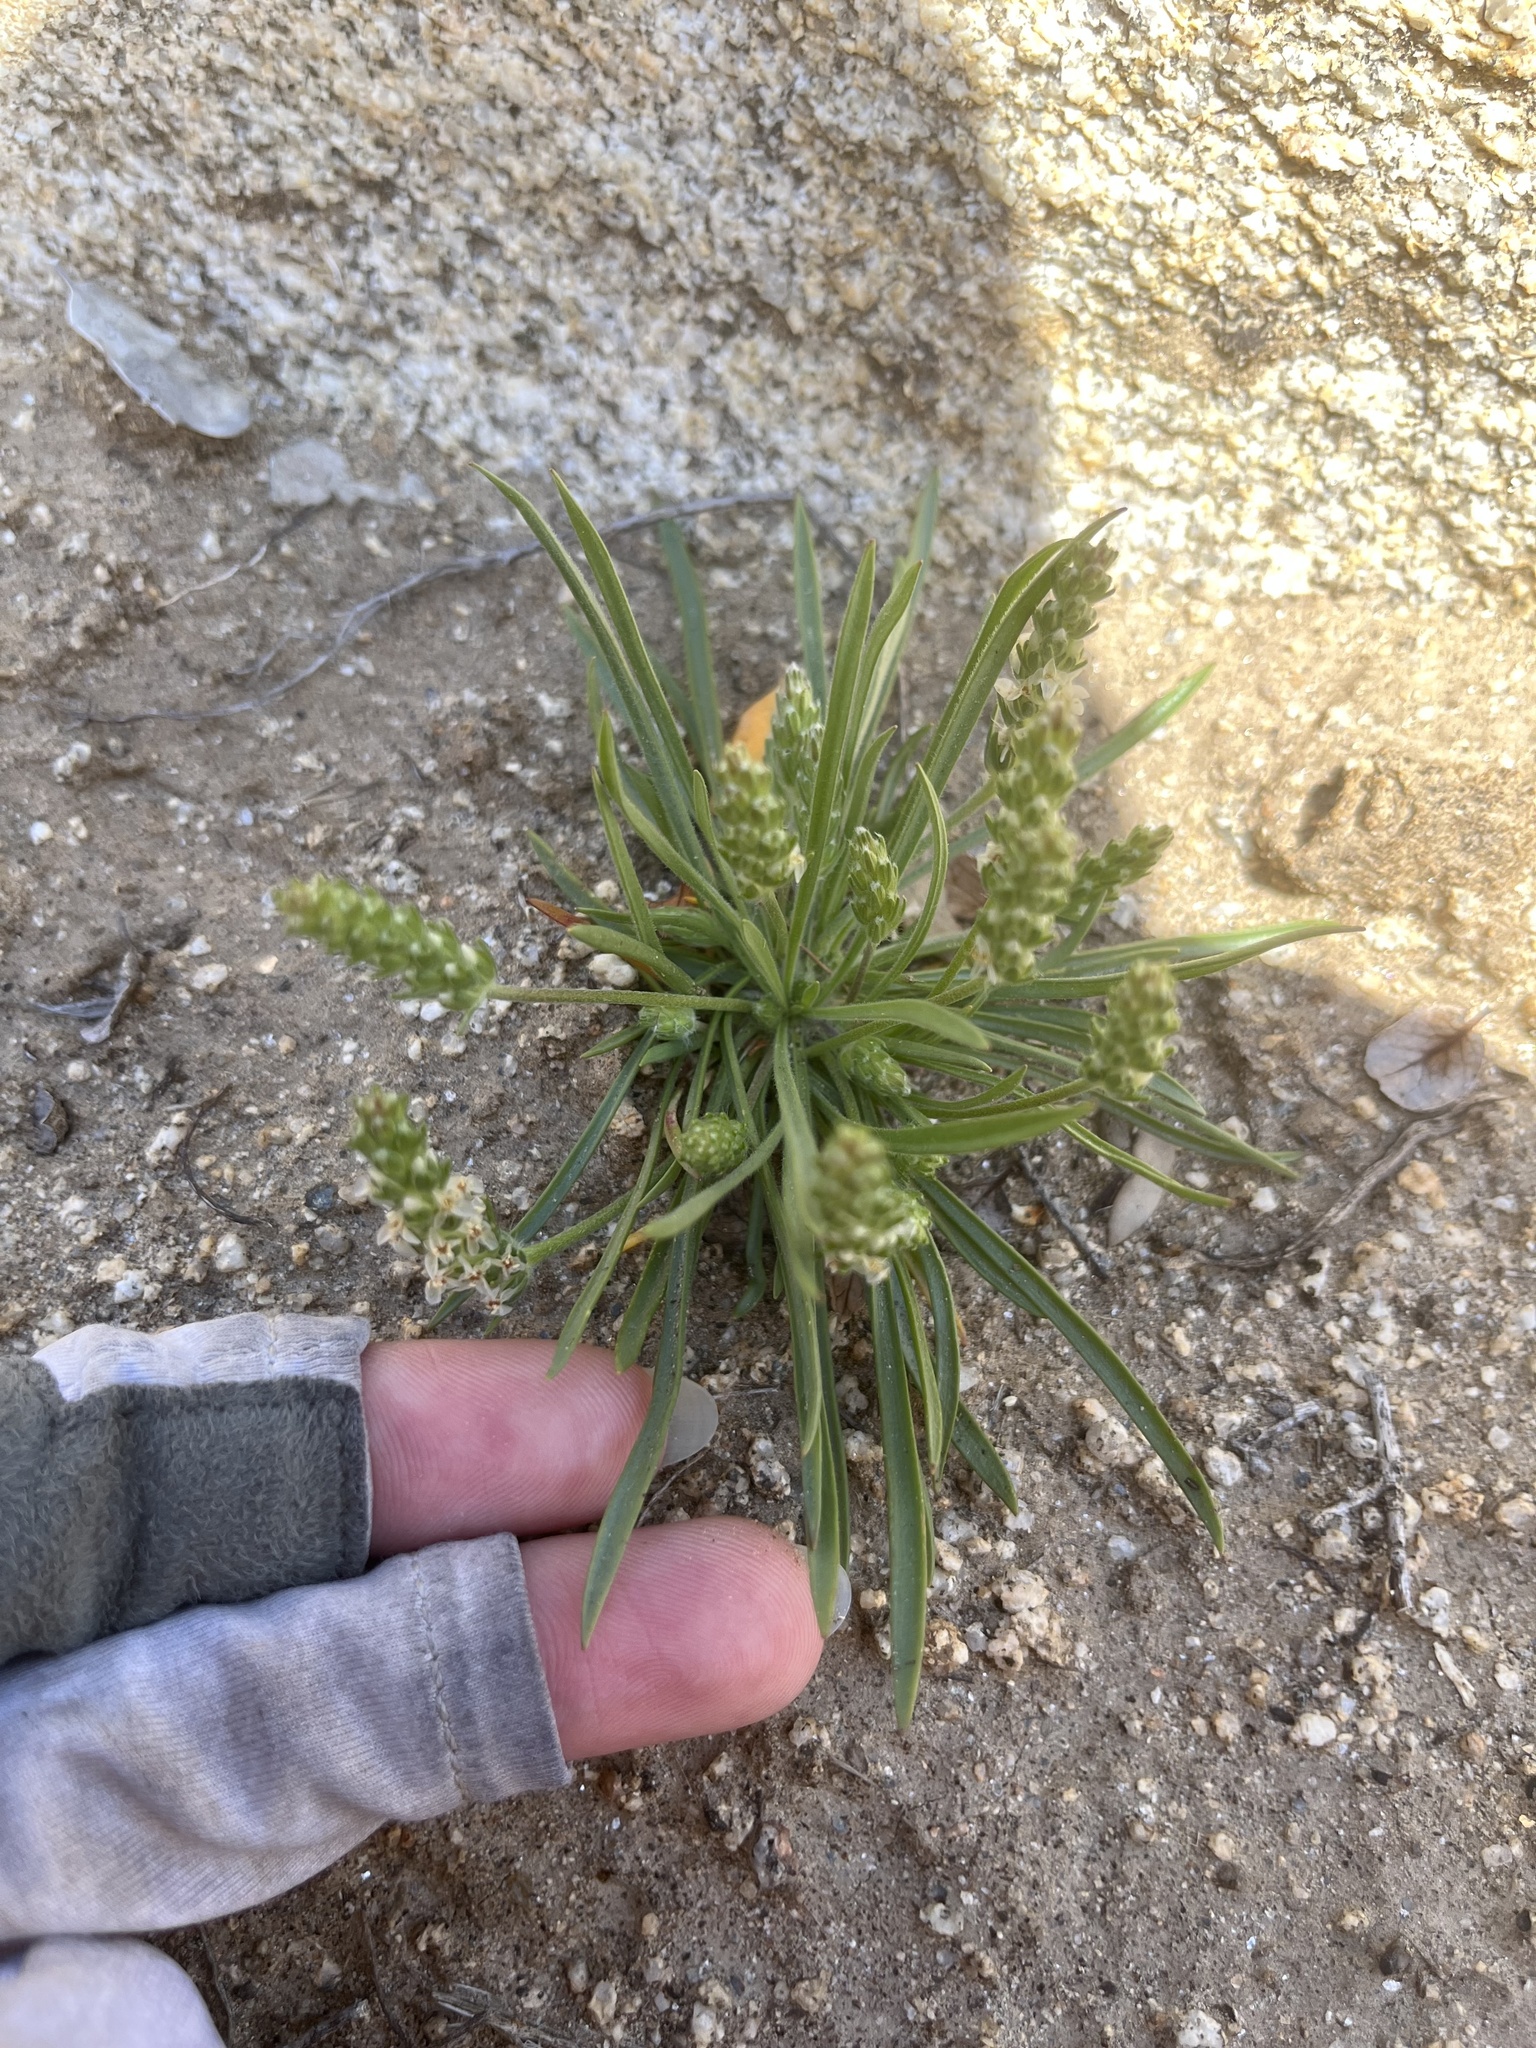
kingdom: Plantae
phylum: Tracheophyta
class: Magnoliopsida
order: Lamiales
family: Plantaginaceae
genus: Plantago
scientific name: Plantago patagonica
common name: Patagonia indian-wheat
